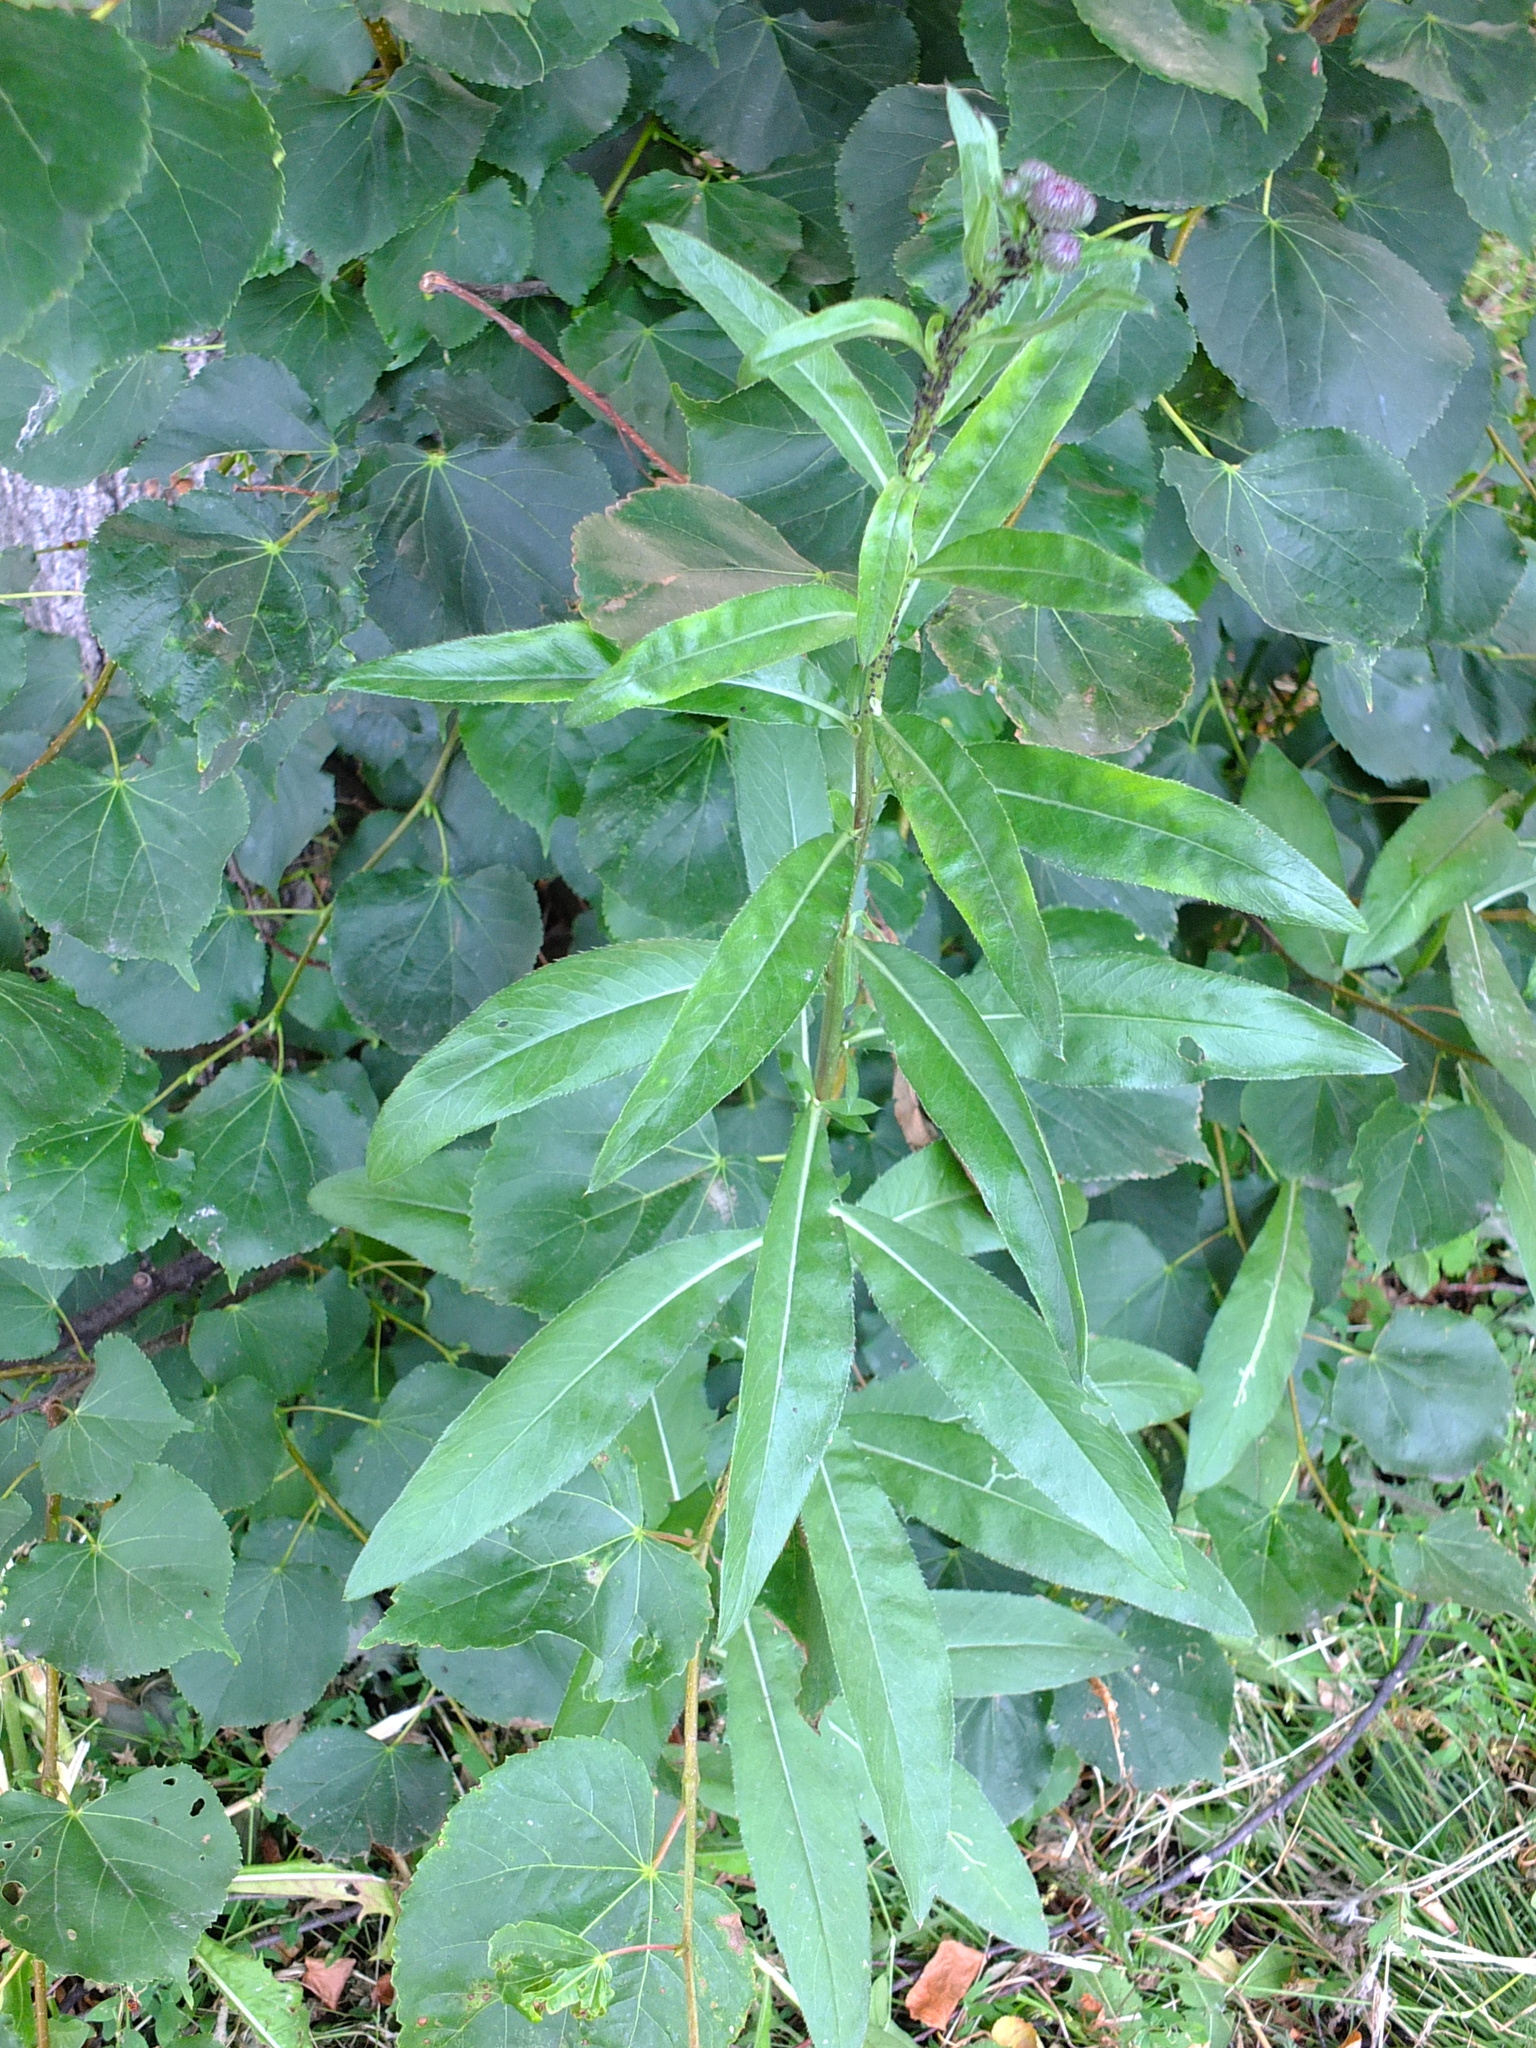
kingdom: Plantae
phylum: Tracheophyta
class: Magnoliopsida
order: Asterales
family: Asteraceae
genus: Cirsium
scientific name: Cirsium arvense
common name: Creeping thistle
